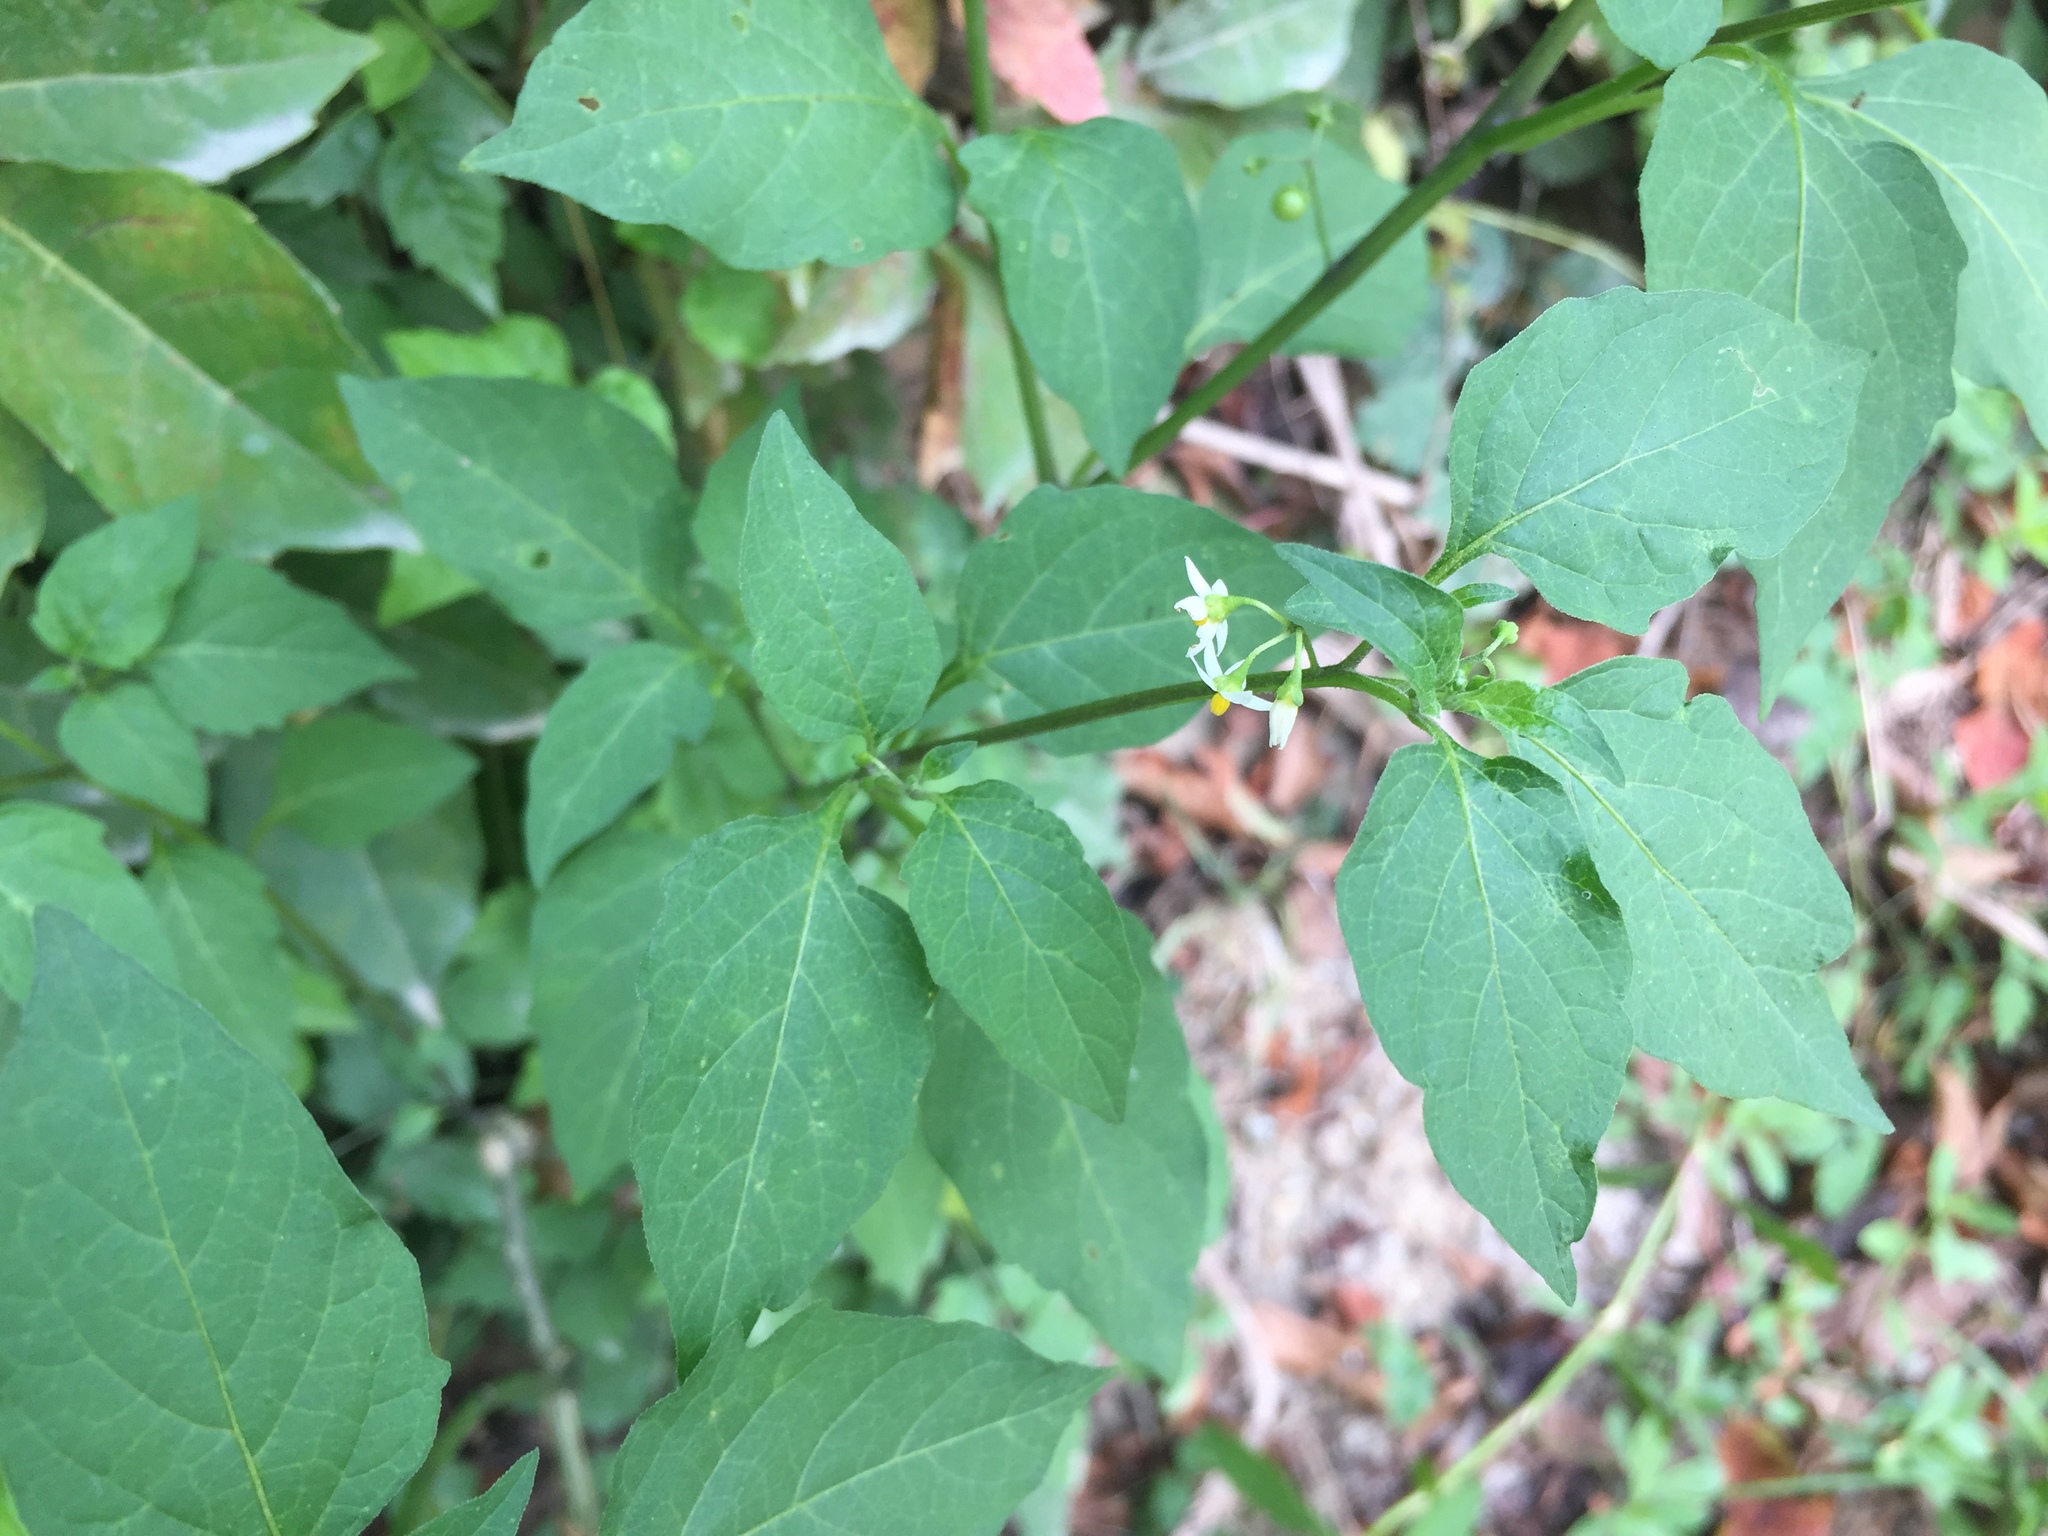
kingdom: Plantae
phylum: Tracheophyta
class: Magnoliopsida
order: Solanales
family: Solanaceae
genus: Solanum
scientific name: Solanum americanum
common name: American black nightshade
